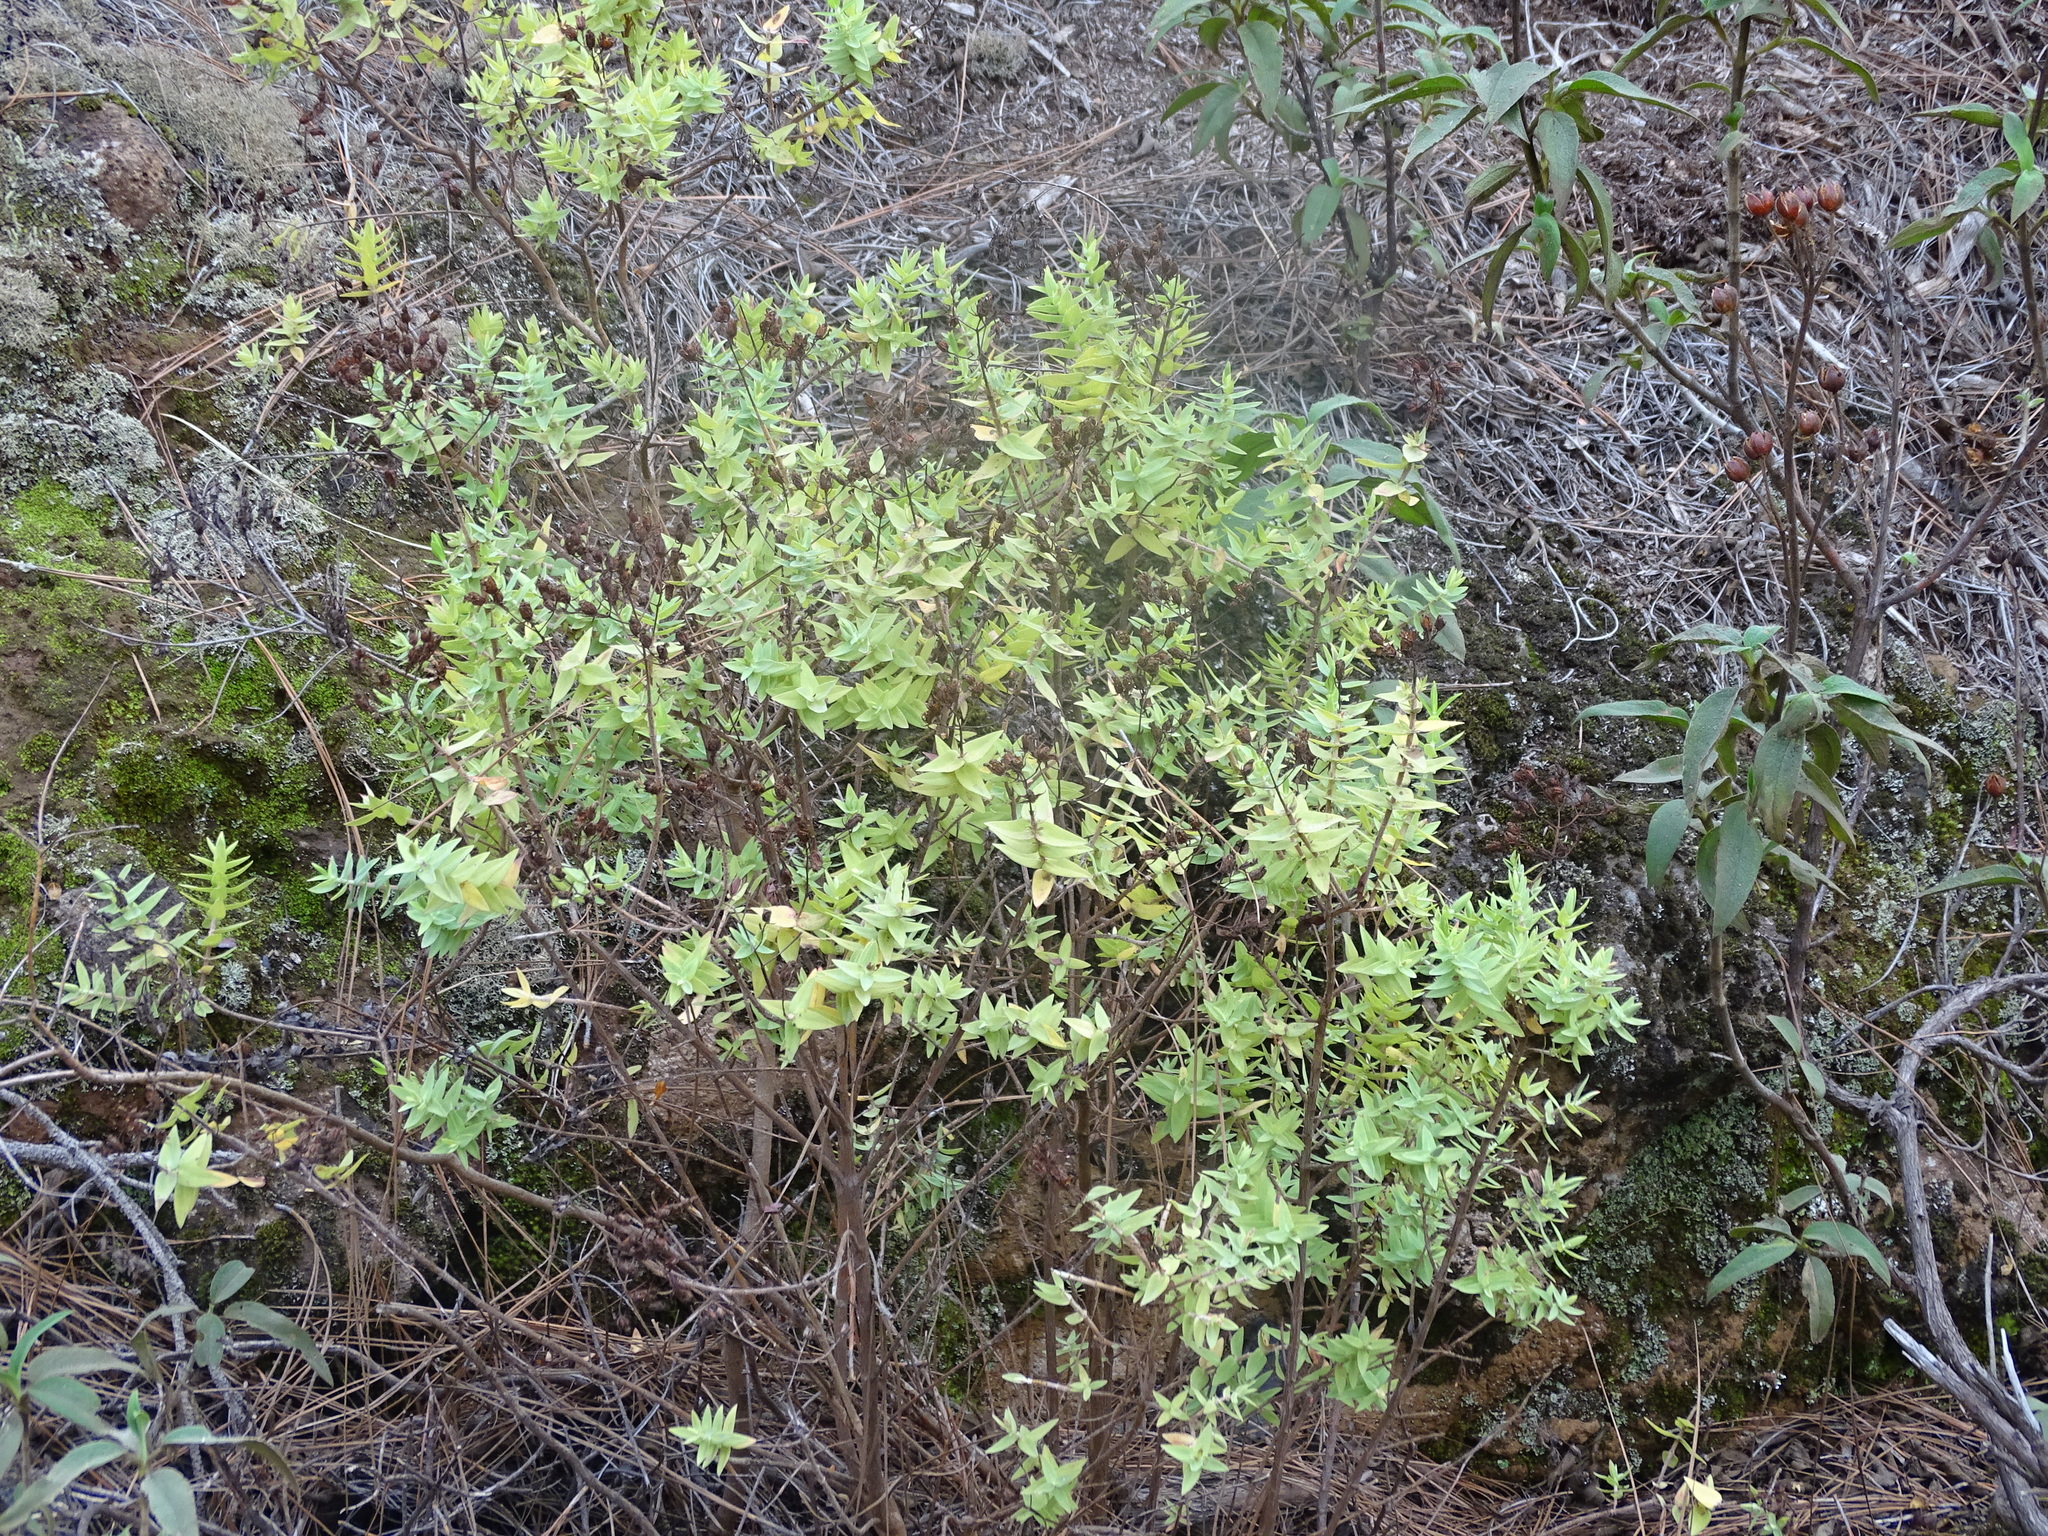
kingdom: Plantae
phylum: Tracheophyta
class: Magnoliopsida
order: Malpighiales
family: Hypericaceae
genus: Hypericum
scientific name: Hypericum reflexum
